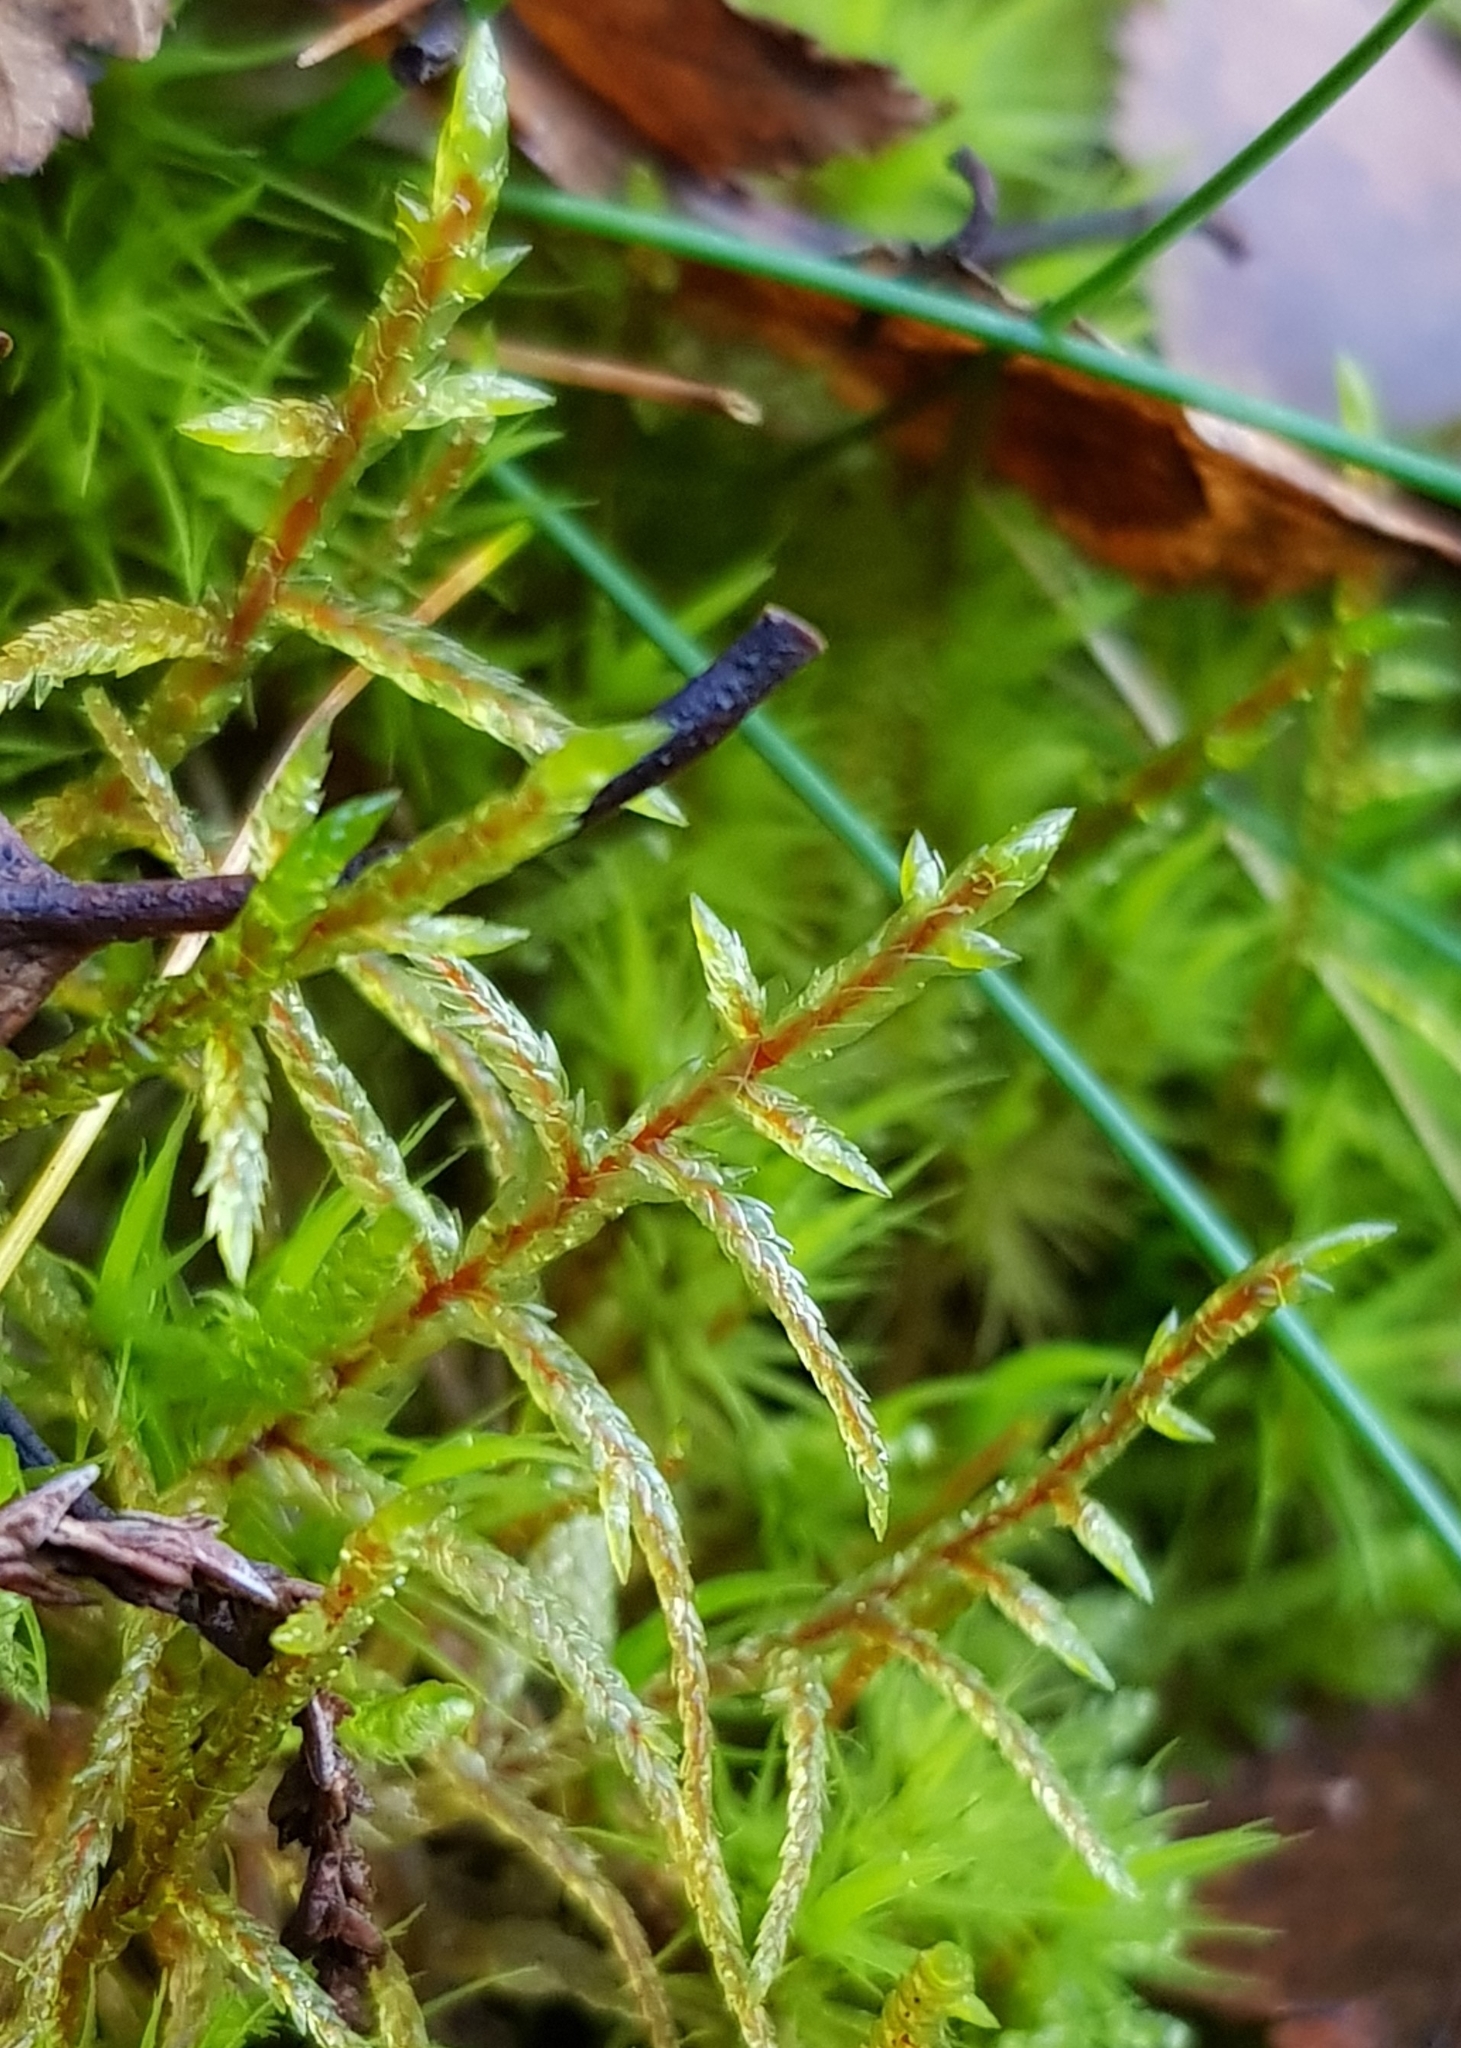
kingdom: Plantae
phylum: Bryophyta
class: Bryopsida
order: Hypnales
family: Hylocomiaceae
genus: Pleurozium
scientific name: Pleurozium schreberi
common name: Red-stemmed feather moss
